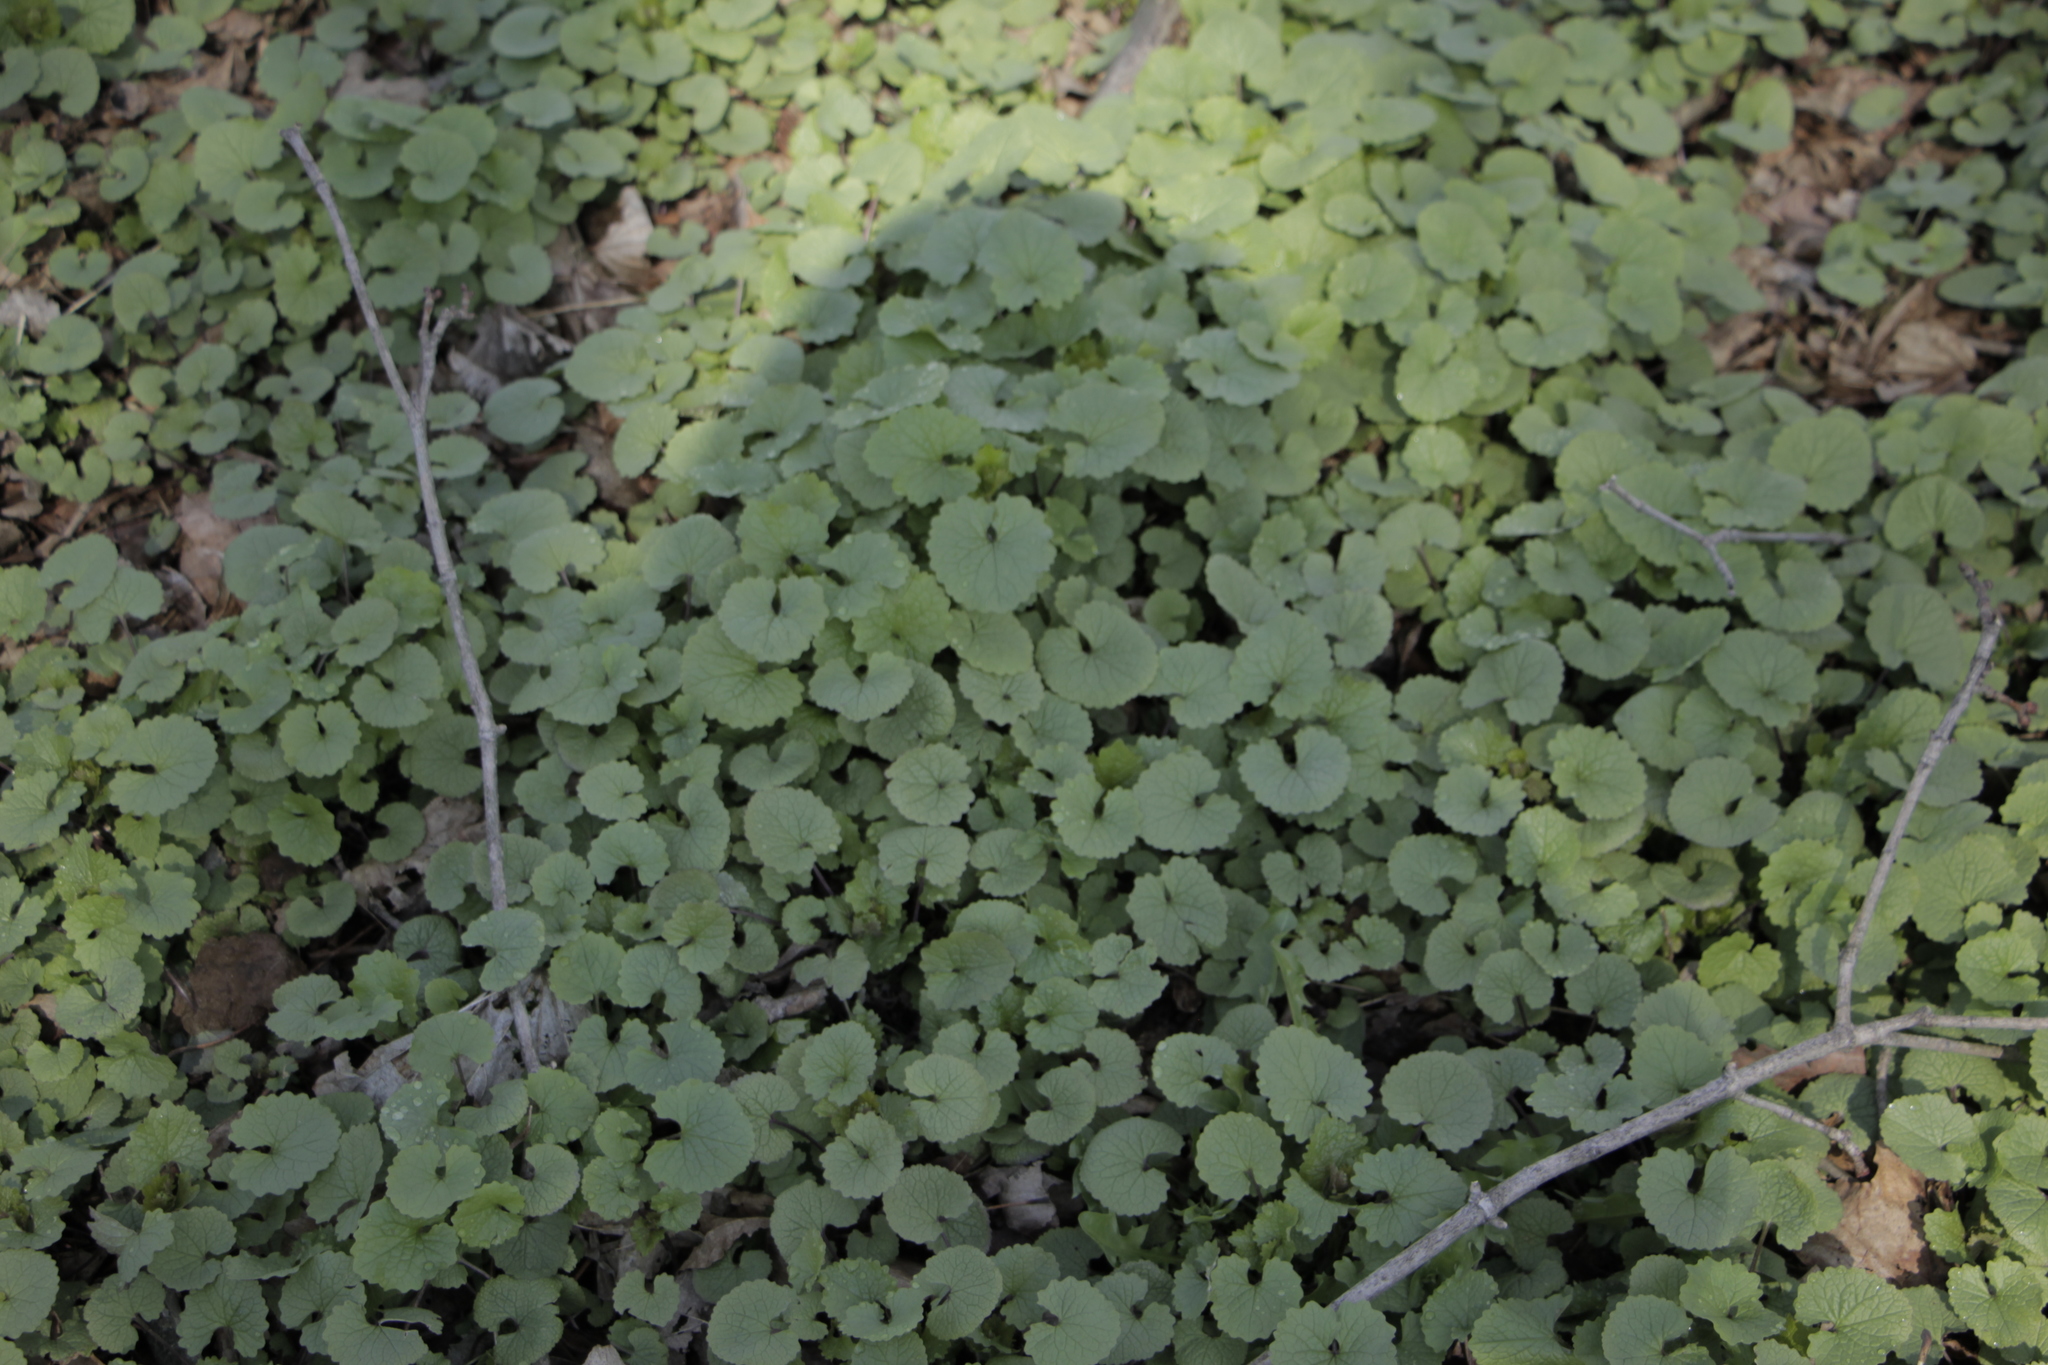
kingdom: Plantae
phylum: Tracheophyta
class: Magnoliopsida
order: Brassicales
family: Brassicaceae
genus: Alliaria
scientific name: Alliaria petiolata
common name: Garlic mustard
